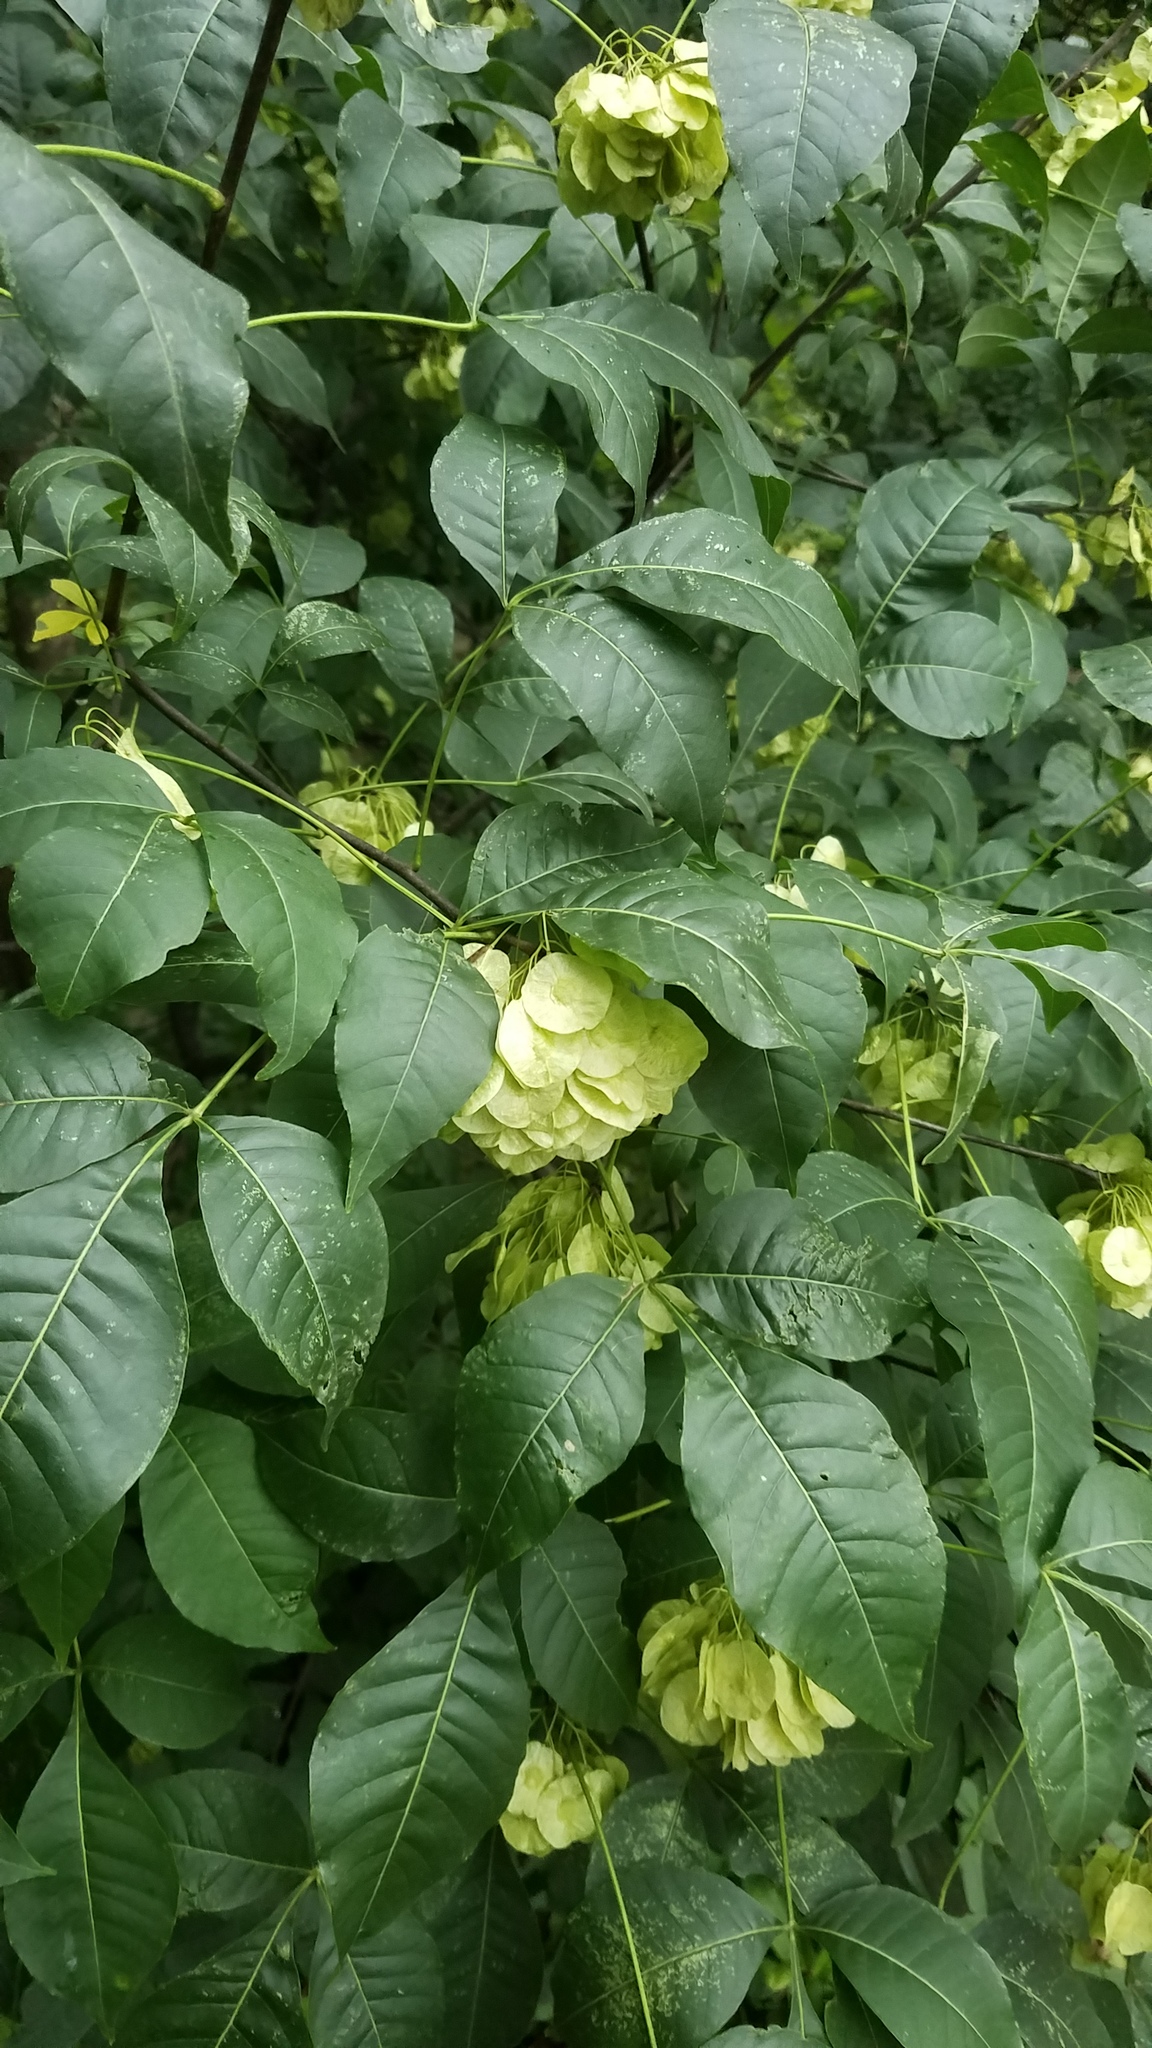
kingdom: Plantae
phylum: Tracheophyta
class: Magnoliopsida
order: Sapindales
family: Rutaceae
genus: Ptelea
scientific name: Ptelea trifoliata
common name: Common hop-tree
